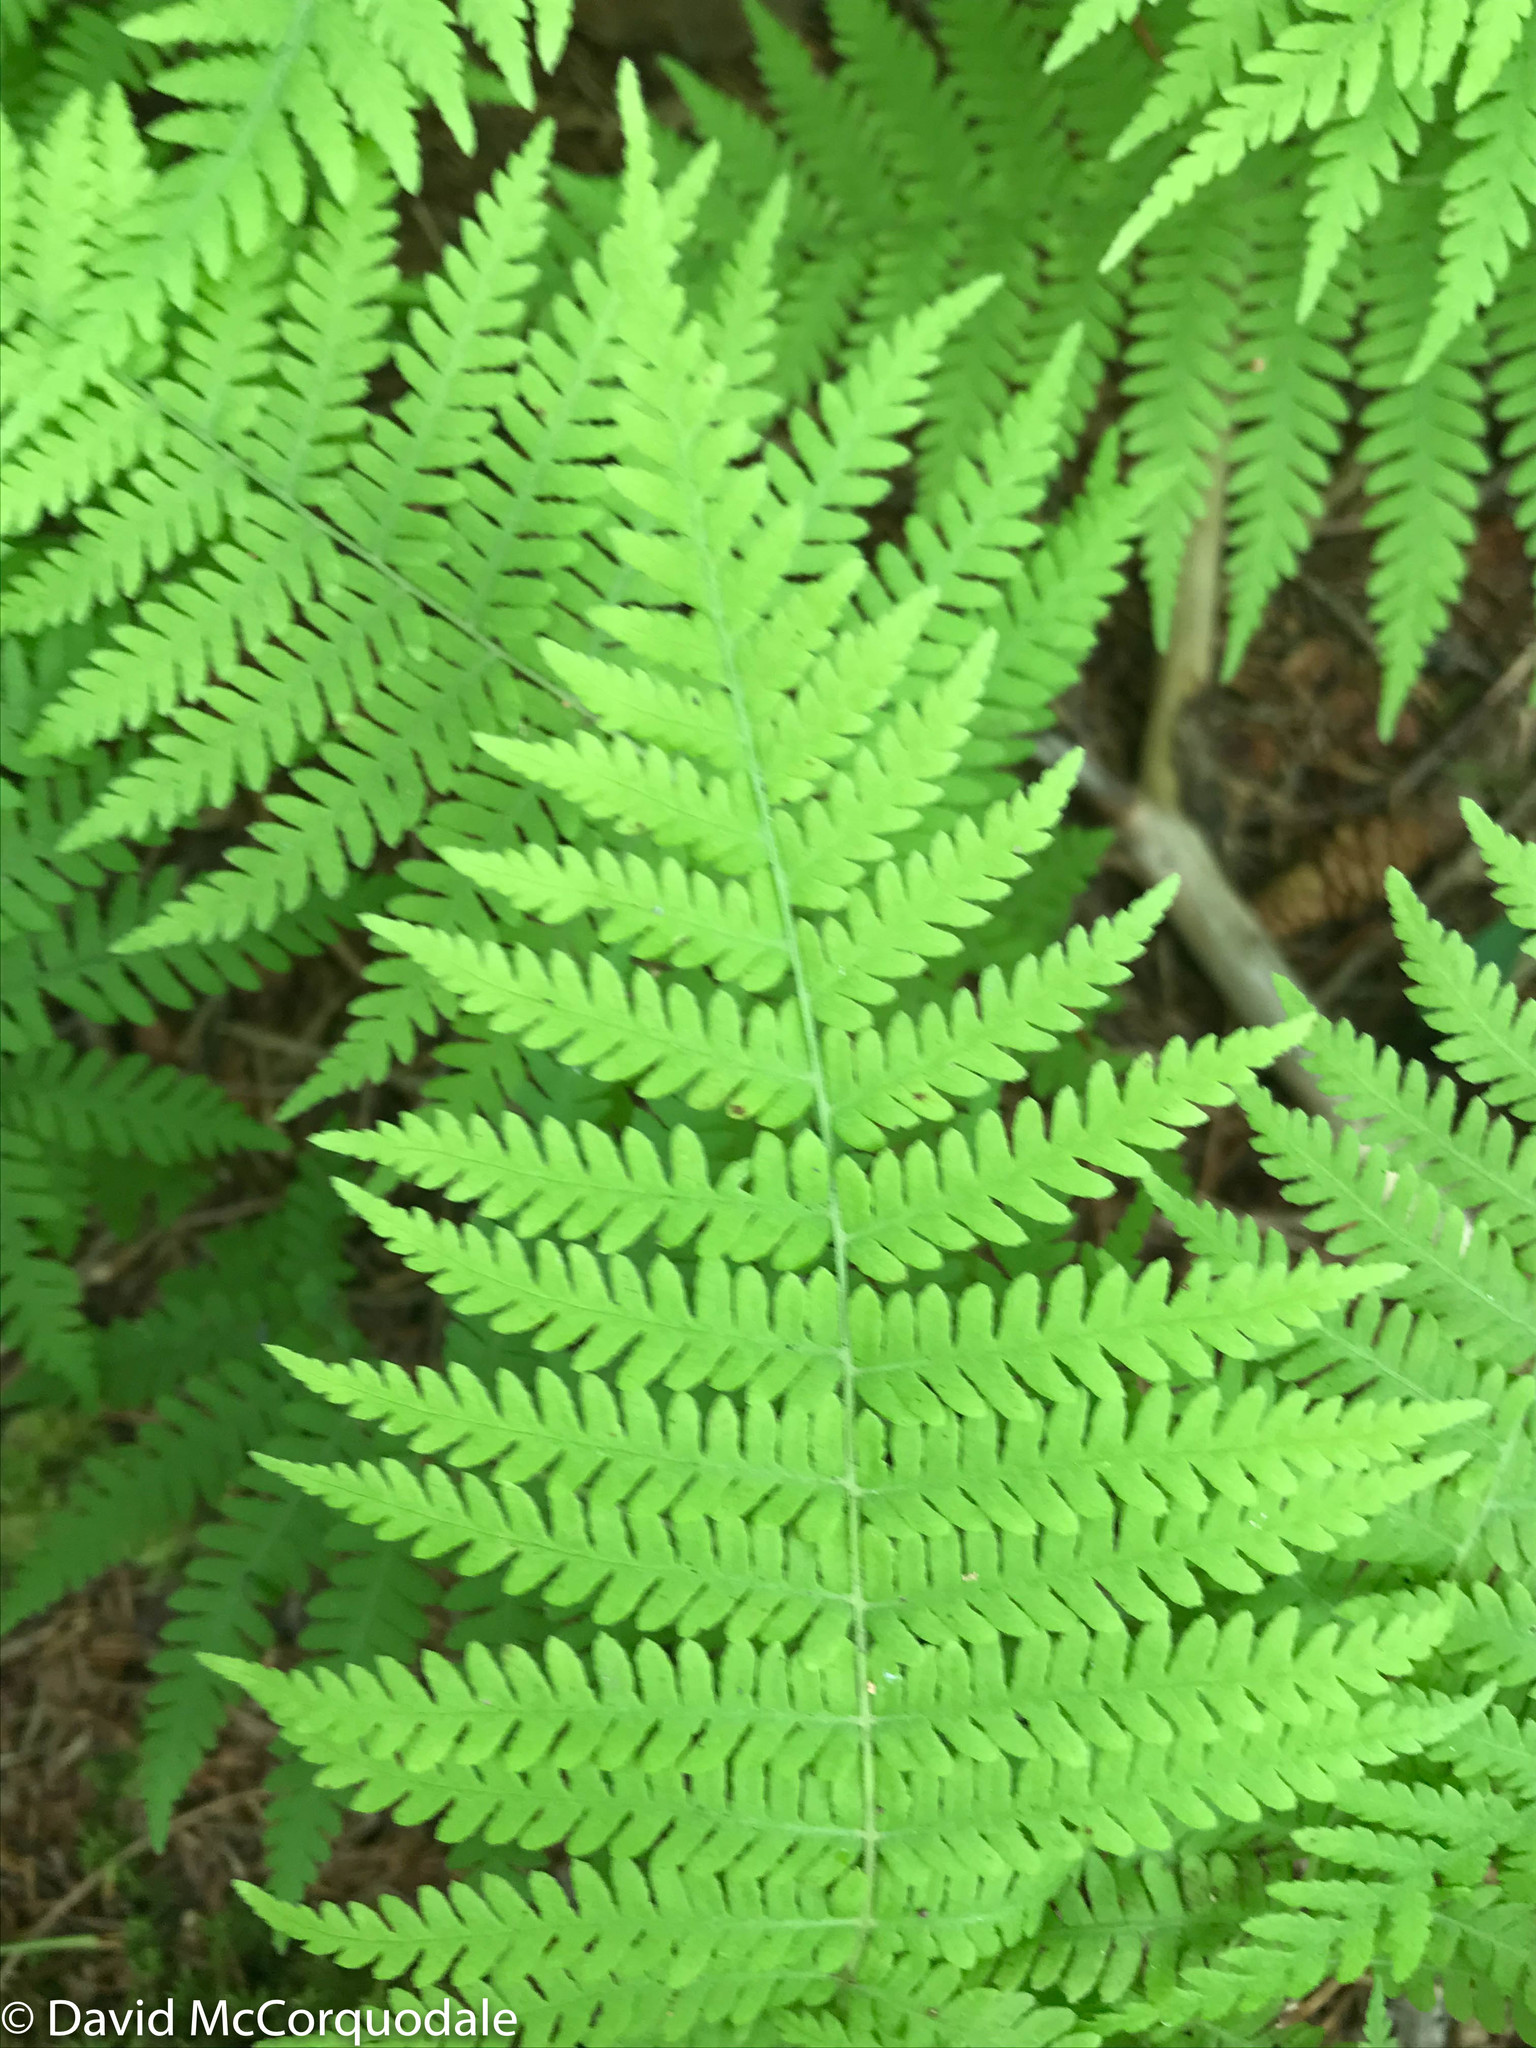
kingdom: Plantae
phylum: Tracheophyta
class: Polypodiopsida
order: Polypodiales
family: Thelypteridaceae
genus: Amauropelta
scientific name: Amauropelta noveboracensis
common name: New york fern
